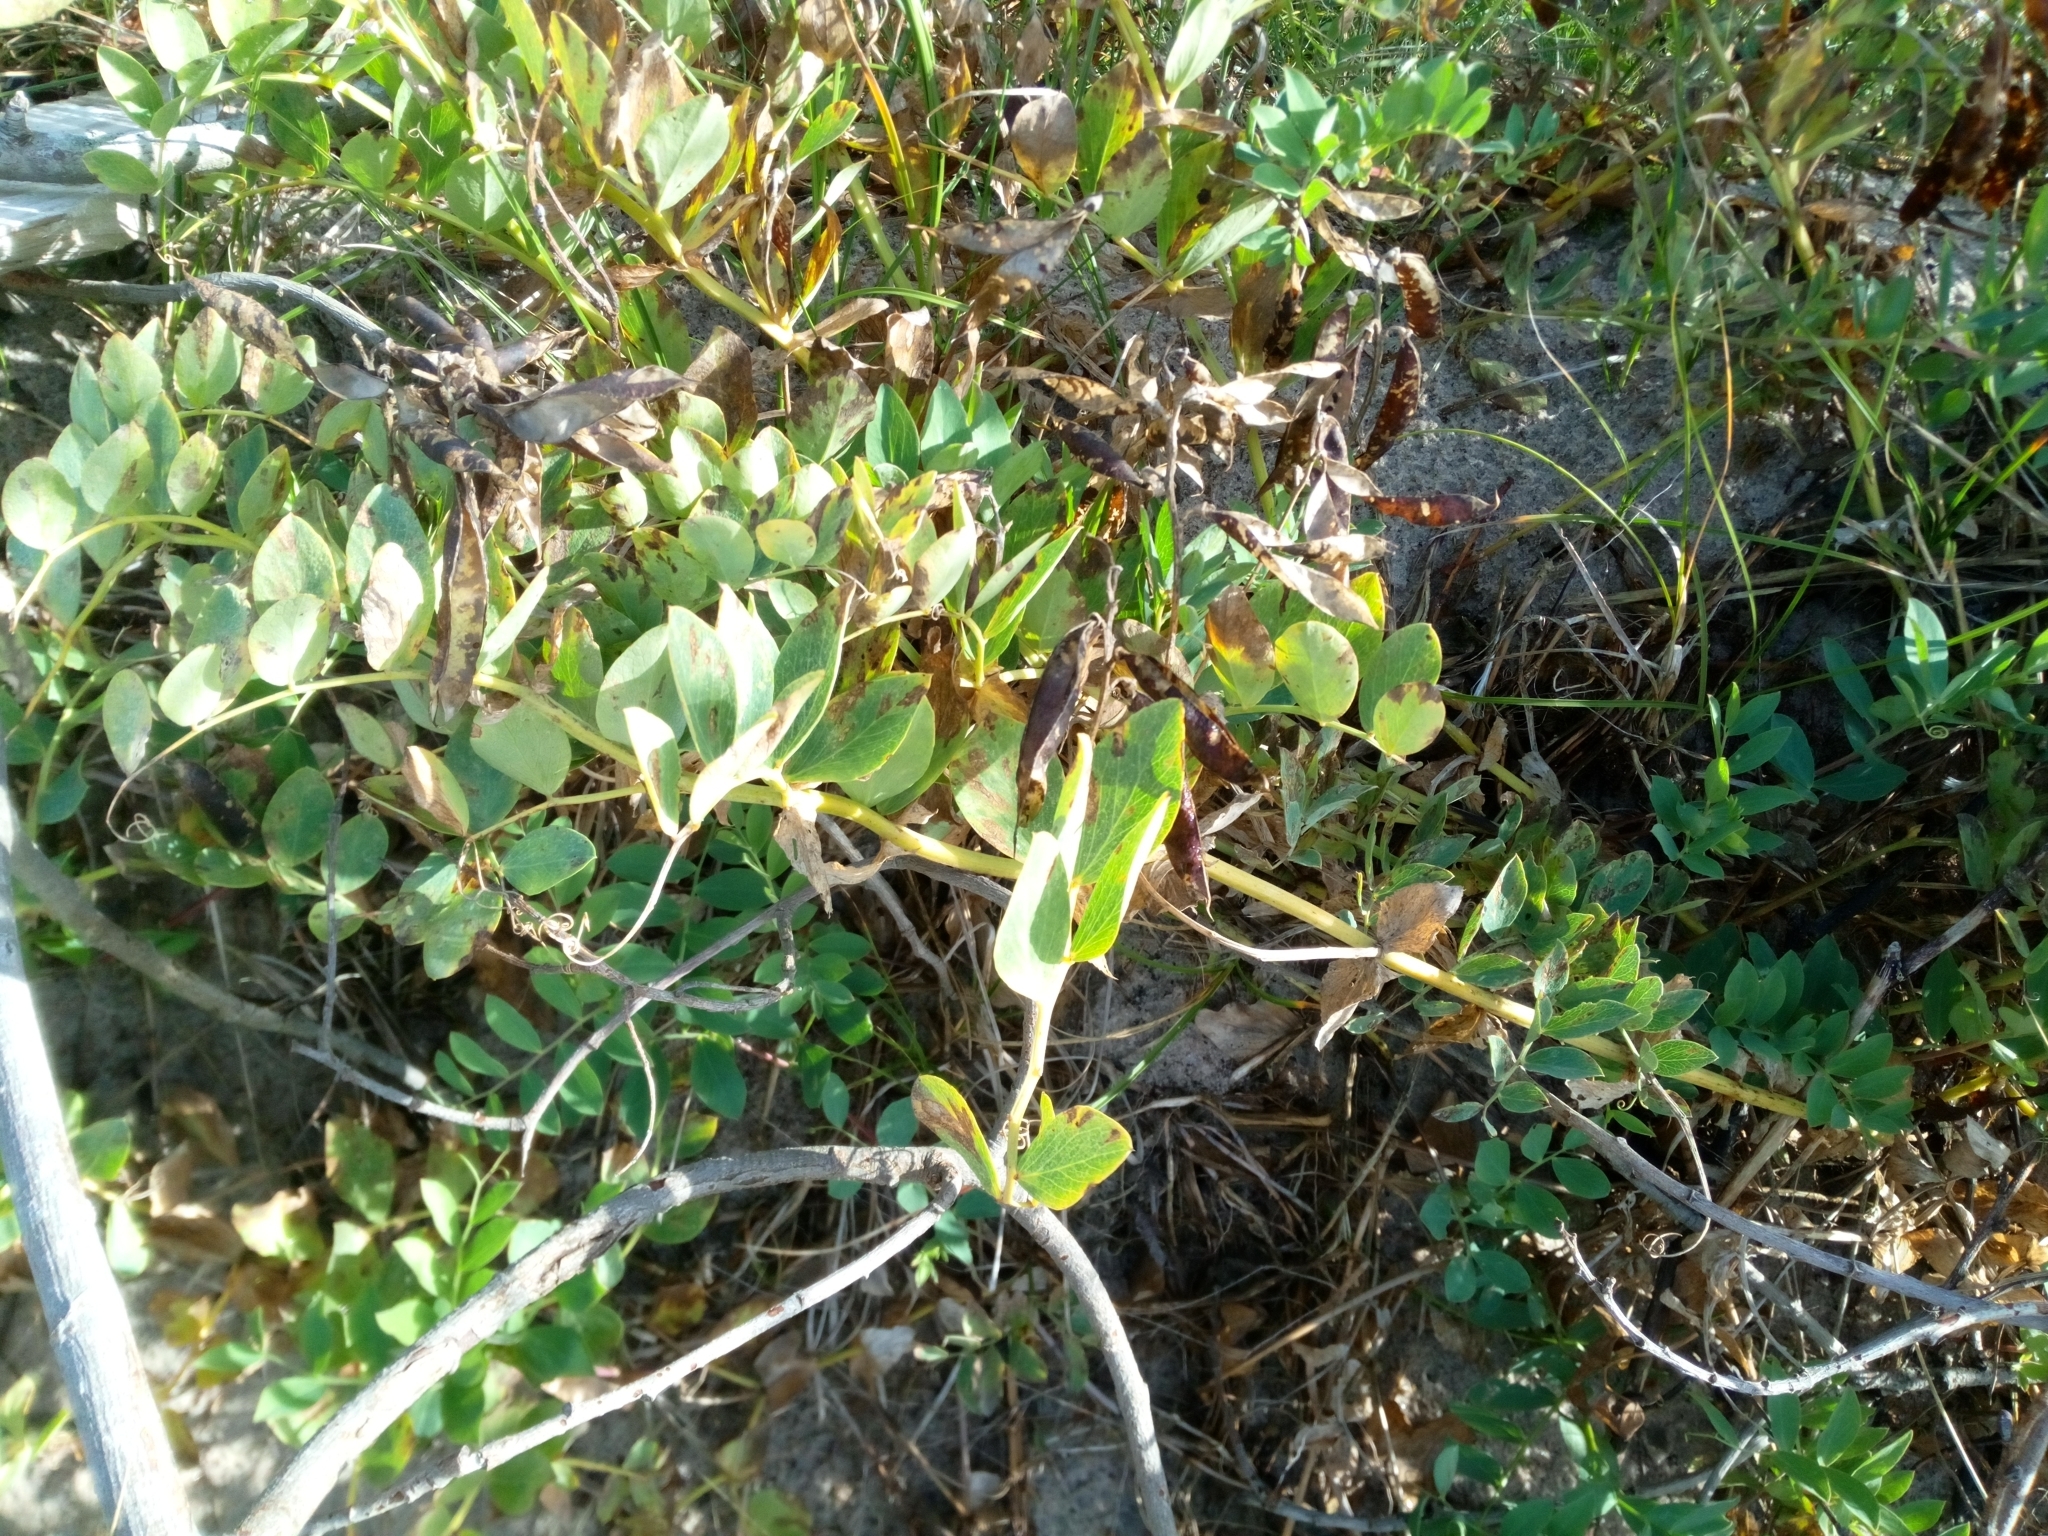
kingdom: Plantae
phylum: Tracheophyta
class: Magnoliopsida
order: Fabales
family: Fabaceae
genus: Lathyrus
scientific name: Lathyrus japonicus
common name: Sea pea
